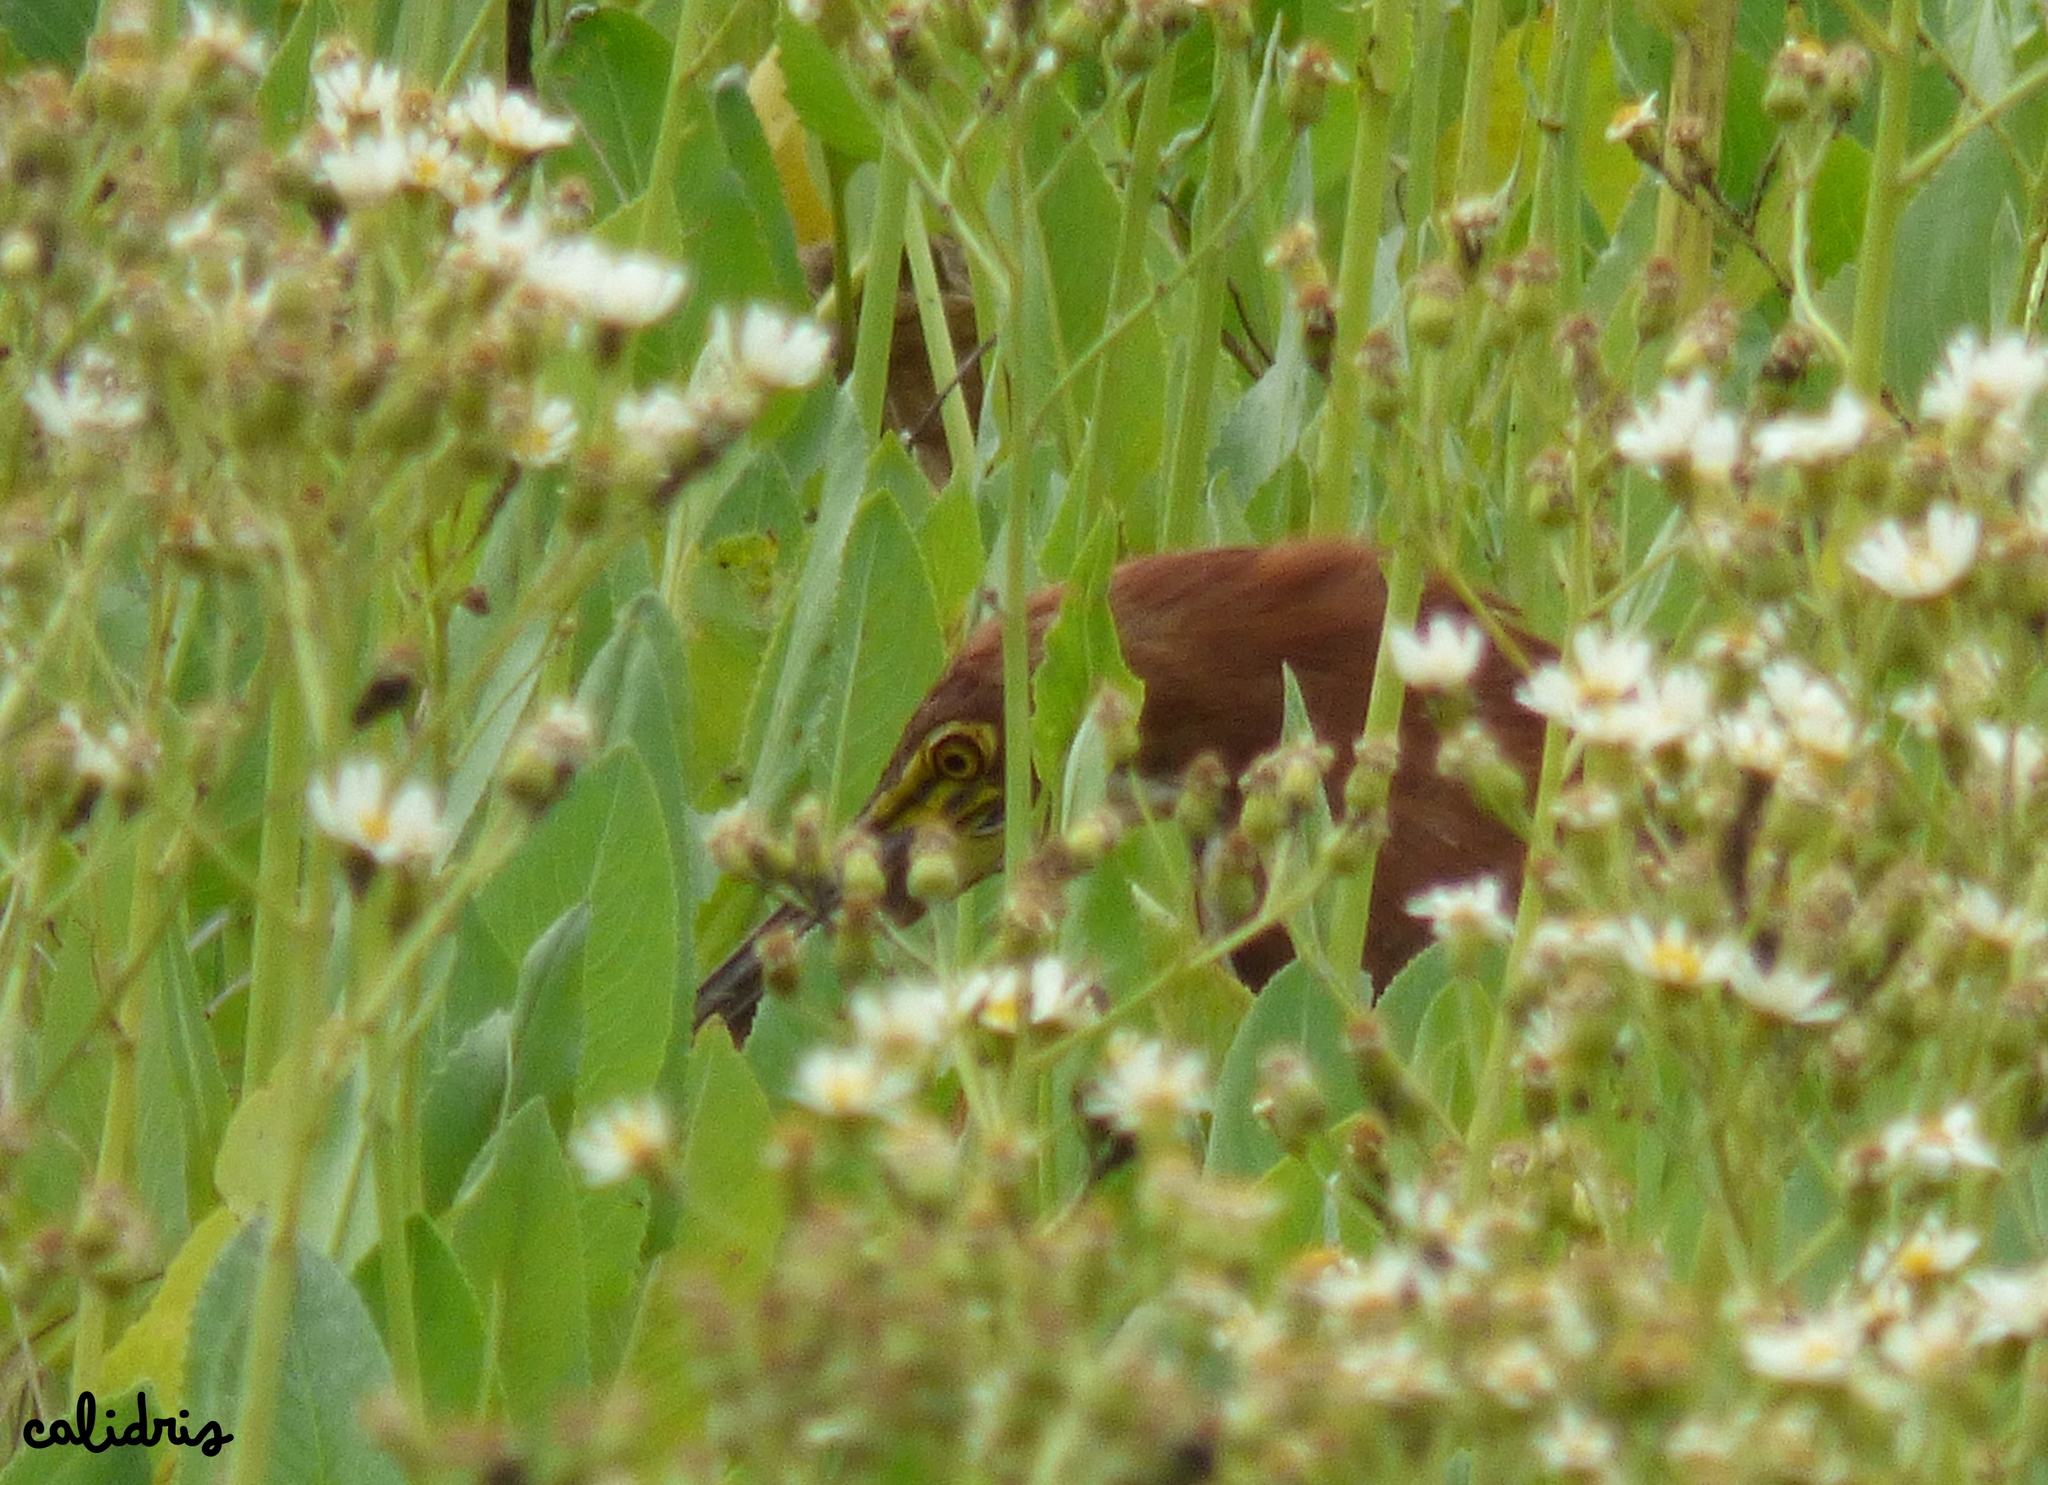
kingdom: Animalia
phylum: Chordata
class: Aves
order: Pelecaniformes
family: Ardeidae
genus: Tigrisoma
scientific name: Tigrisoma lineatum
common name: Rufescent tiger-heron
